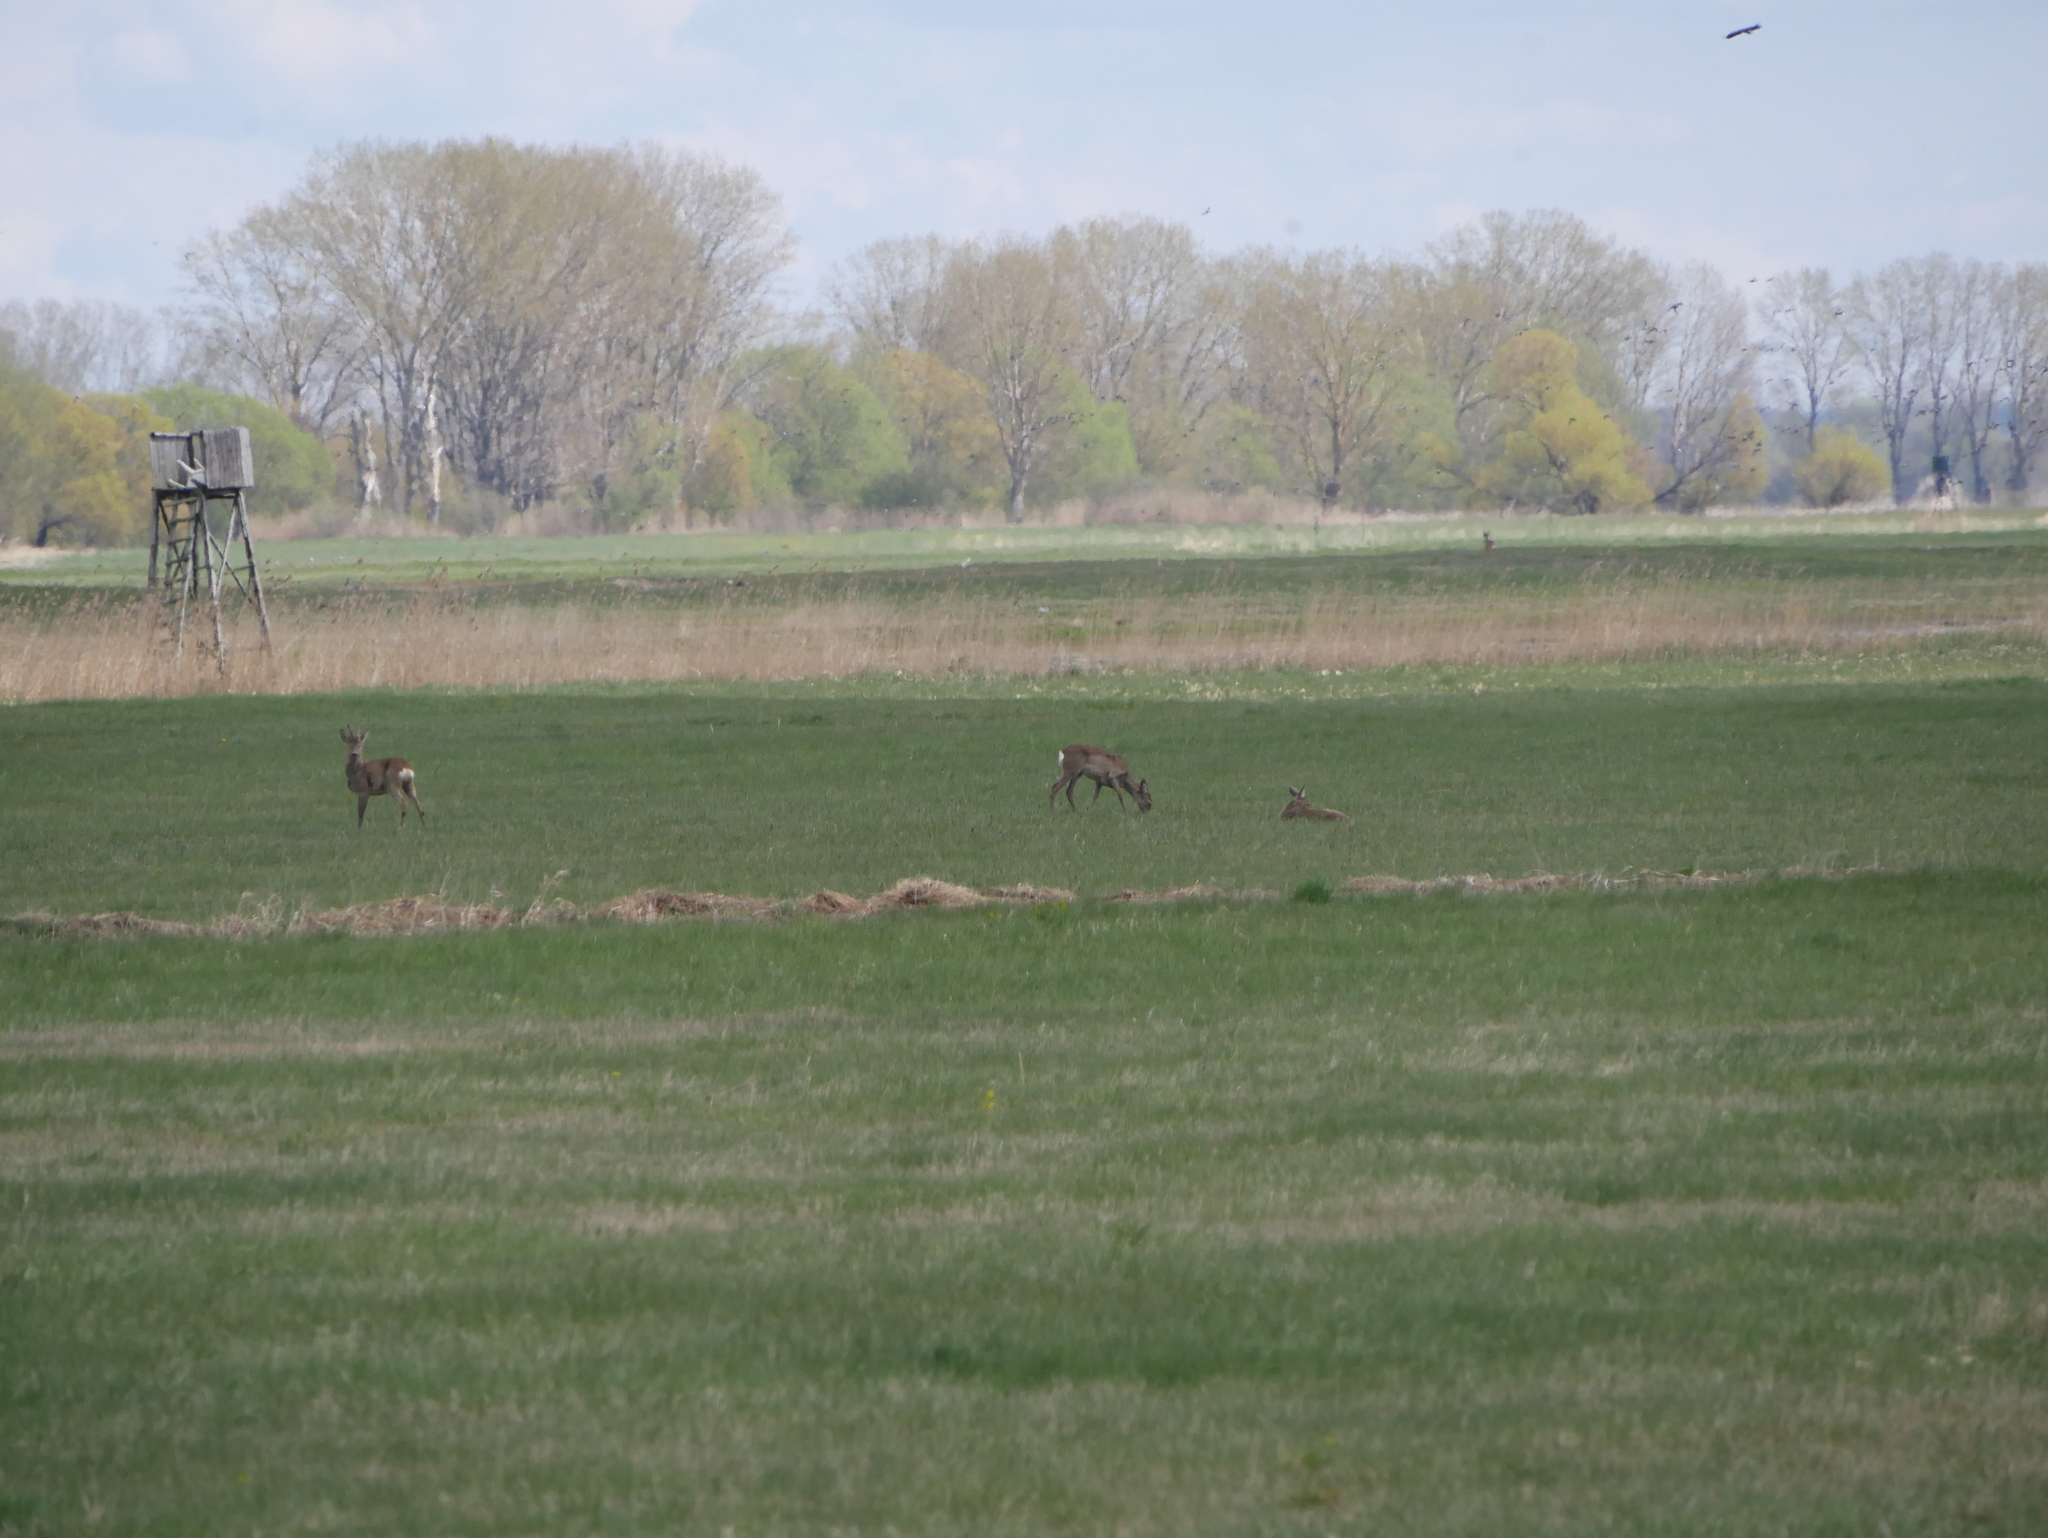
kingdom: Animalia
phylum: Chordata
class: Mammalia
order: Artiodactyla
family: Cervidae
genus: Capreolus
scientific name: Capreolus capreolus
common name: Western roe deer
